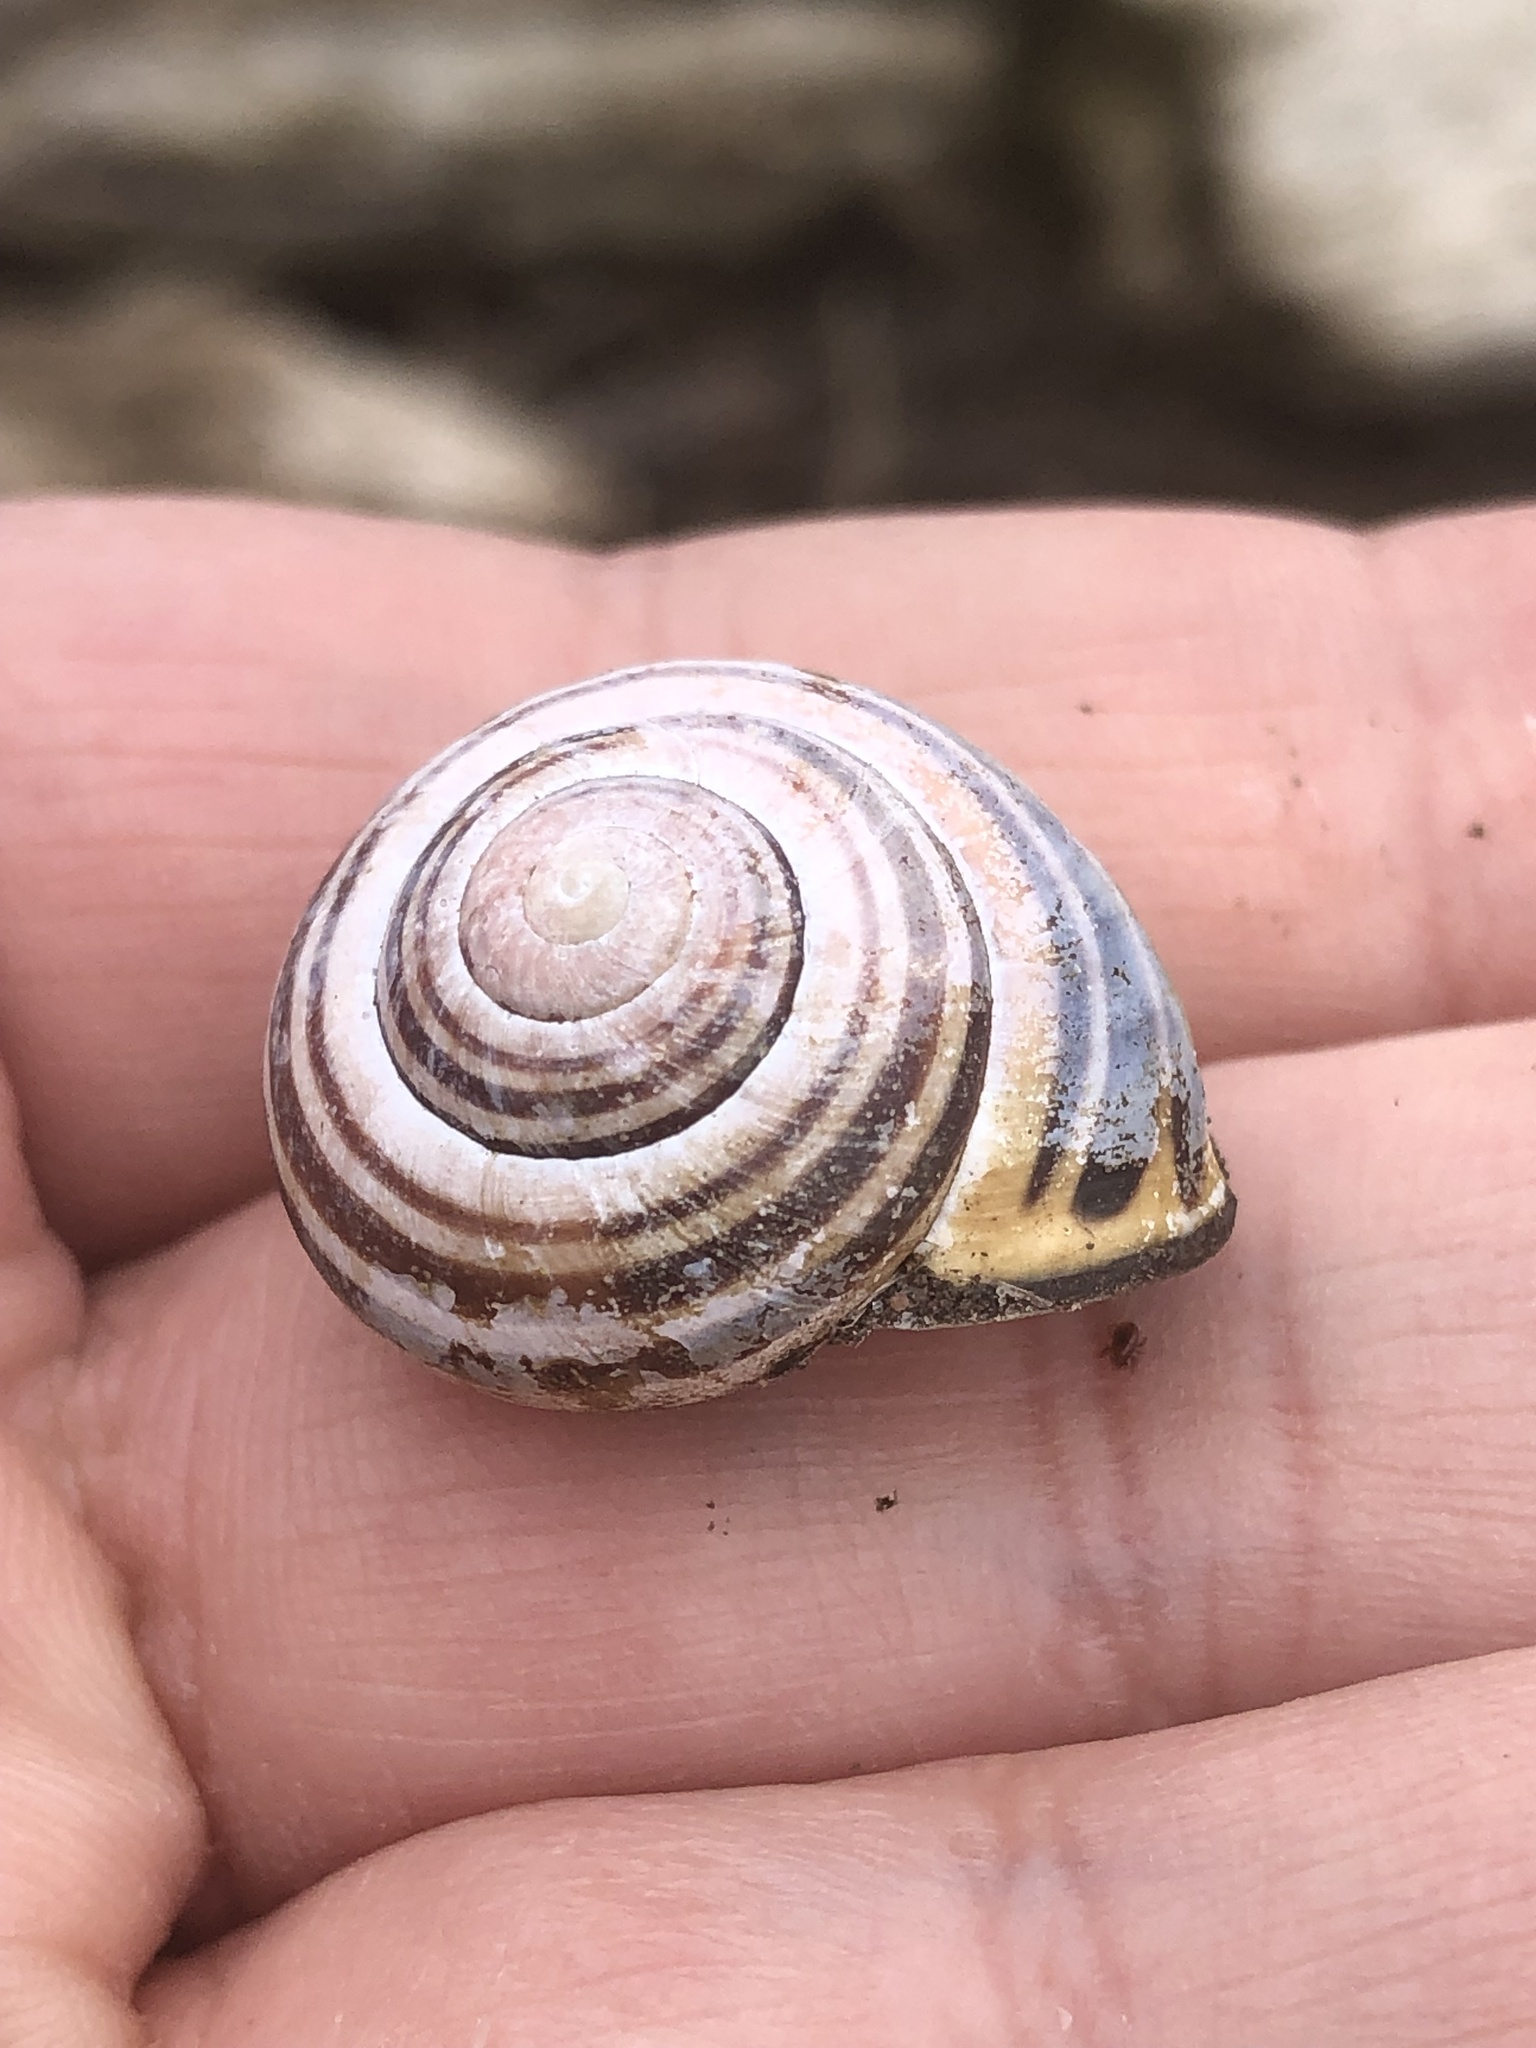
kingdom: Animalia
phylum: Mollusca
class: Gastropoda
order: Stylommatophora
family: Helicidae
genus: Cepaea
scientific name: Cepaea nemoralis
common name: Grovesnail
